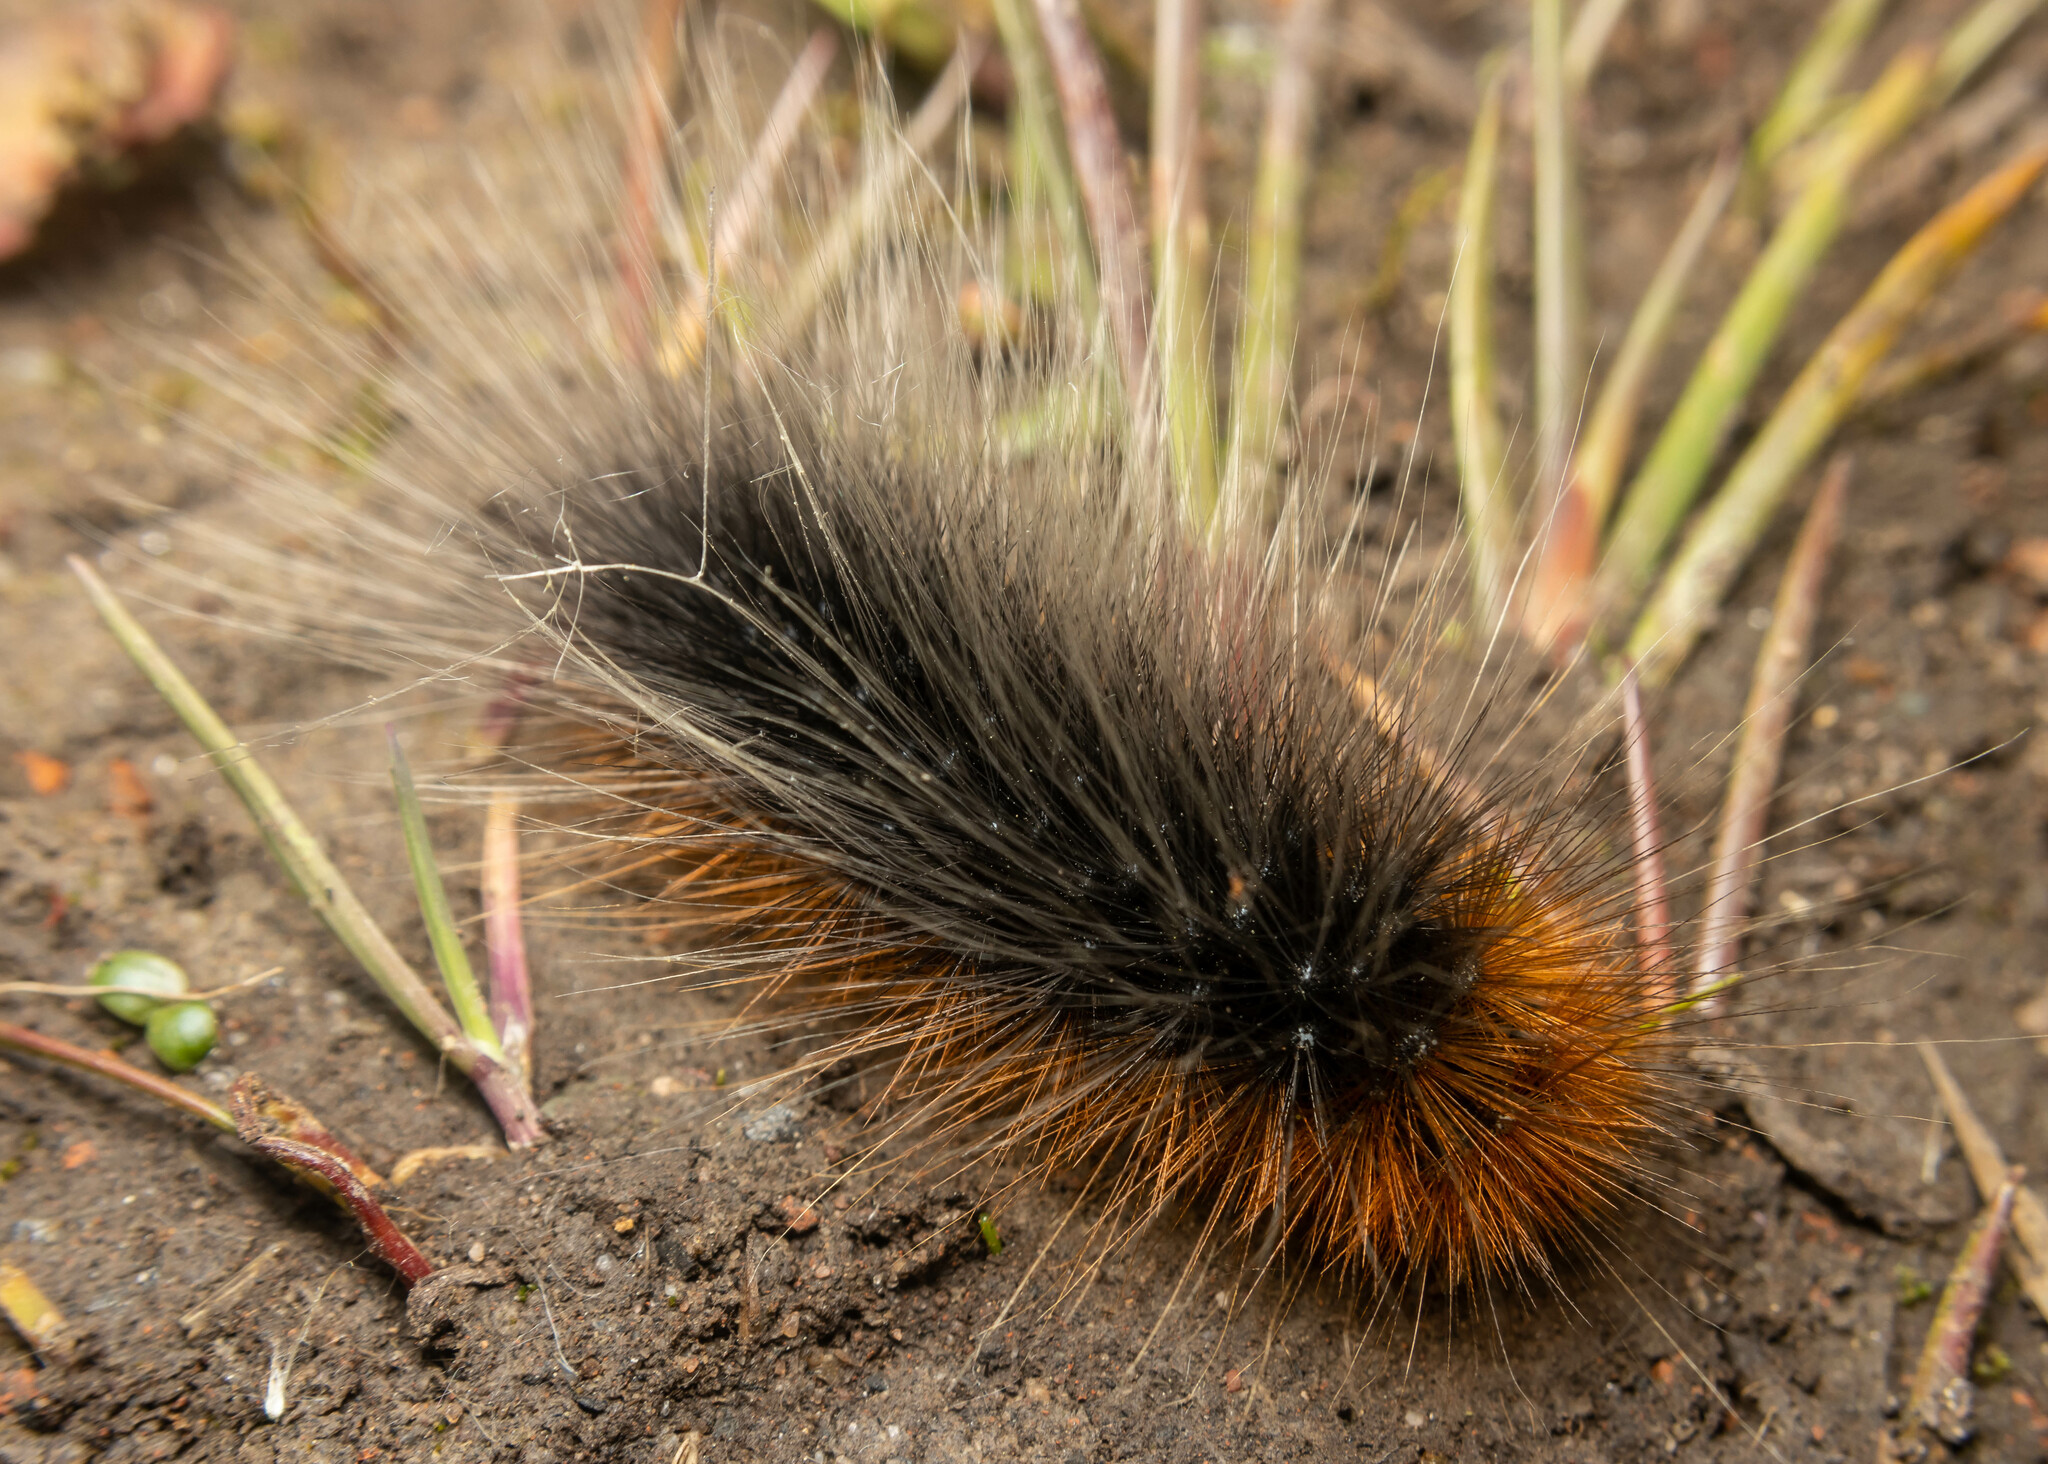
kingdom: Animalia
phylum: Arthropoda
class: Insecta
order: Lepidoptera
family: Erebidae
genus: Arctia
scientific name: Arctia caja
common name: Garden tiger
